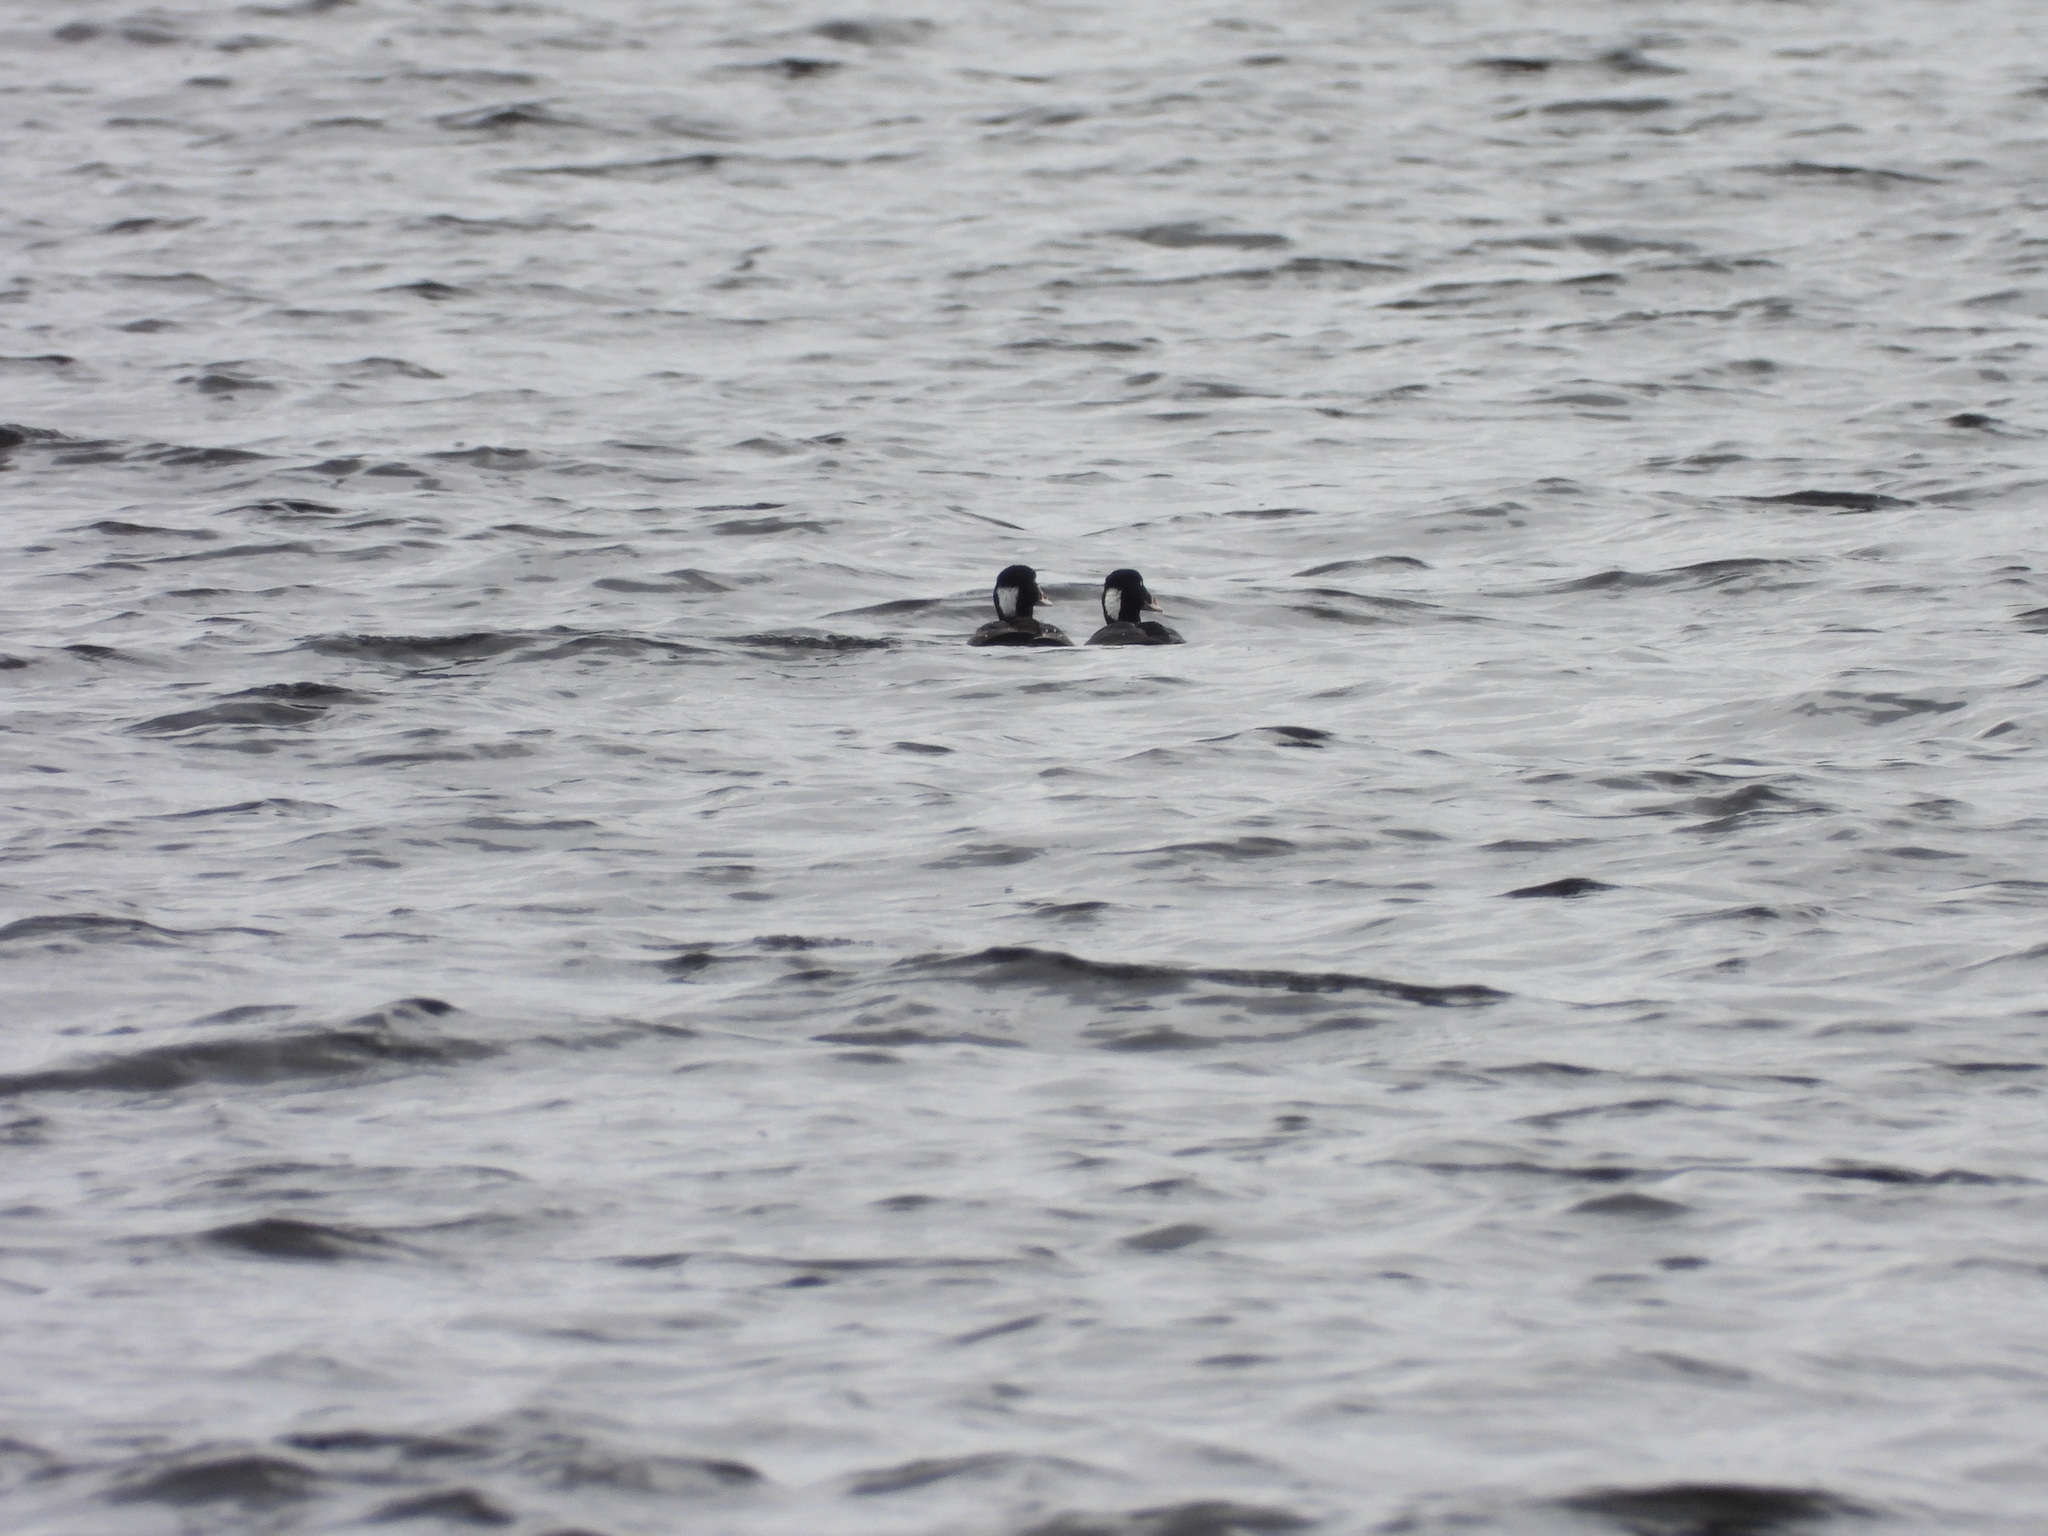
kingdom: Animalia
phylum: Chordata
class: Aves
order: Anseriformes
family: Anatidae
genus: Melanitta
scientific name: Melanitta perspicillata
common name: Surf scoter
